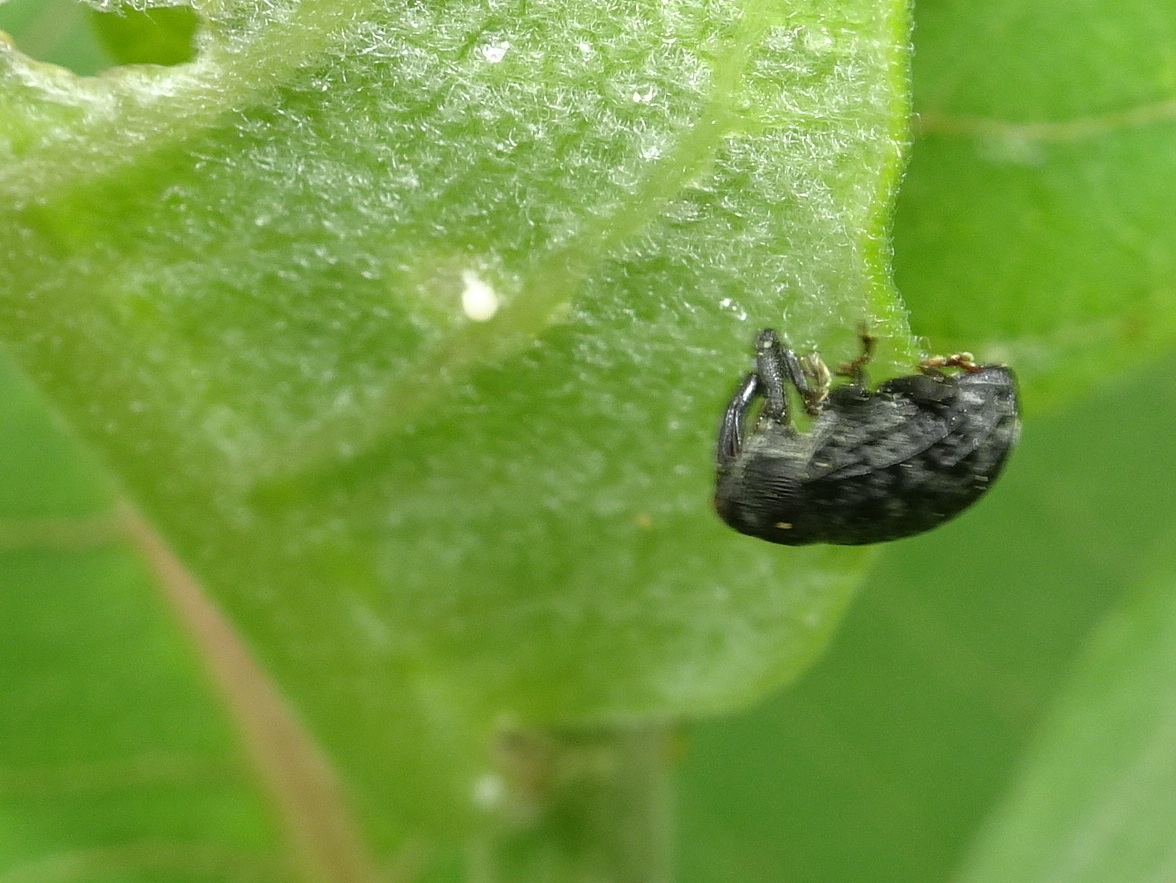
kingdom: Animalia
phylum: Arthropoda
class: Insecta
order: Coleoptera
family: Curculionidae
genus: Rhyssomatus
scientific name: Rhyssomatus lineaticollis
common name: Milkweed stem weevil
